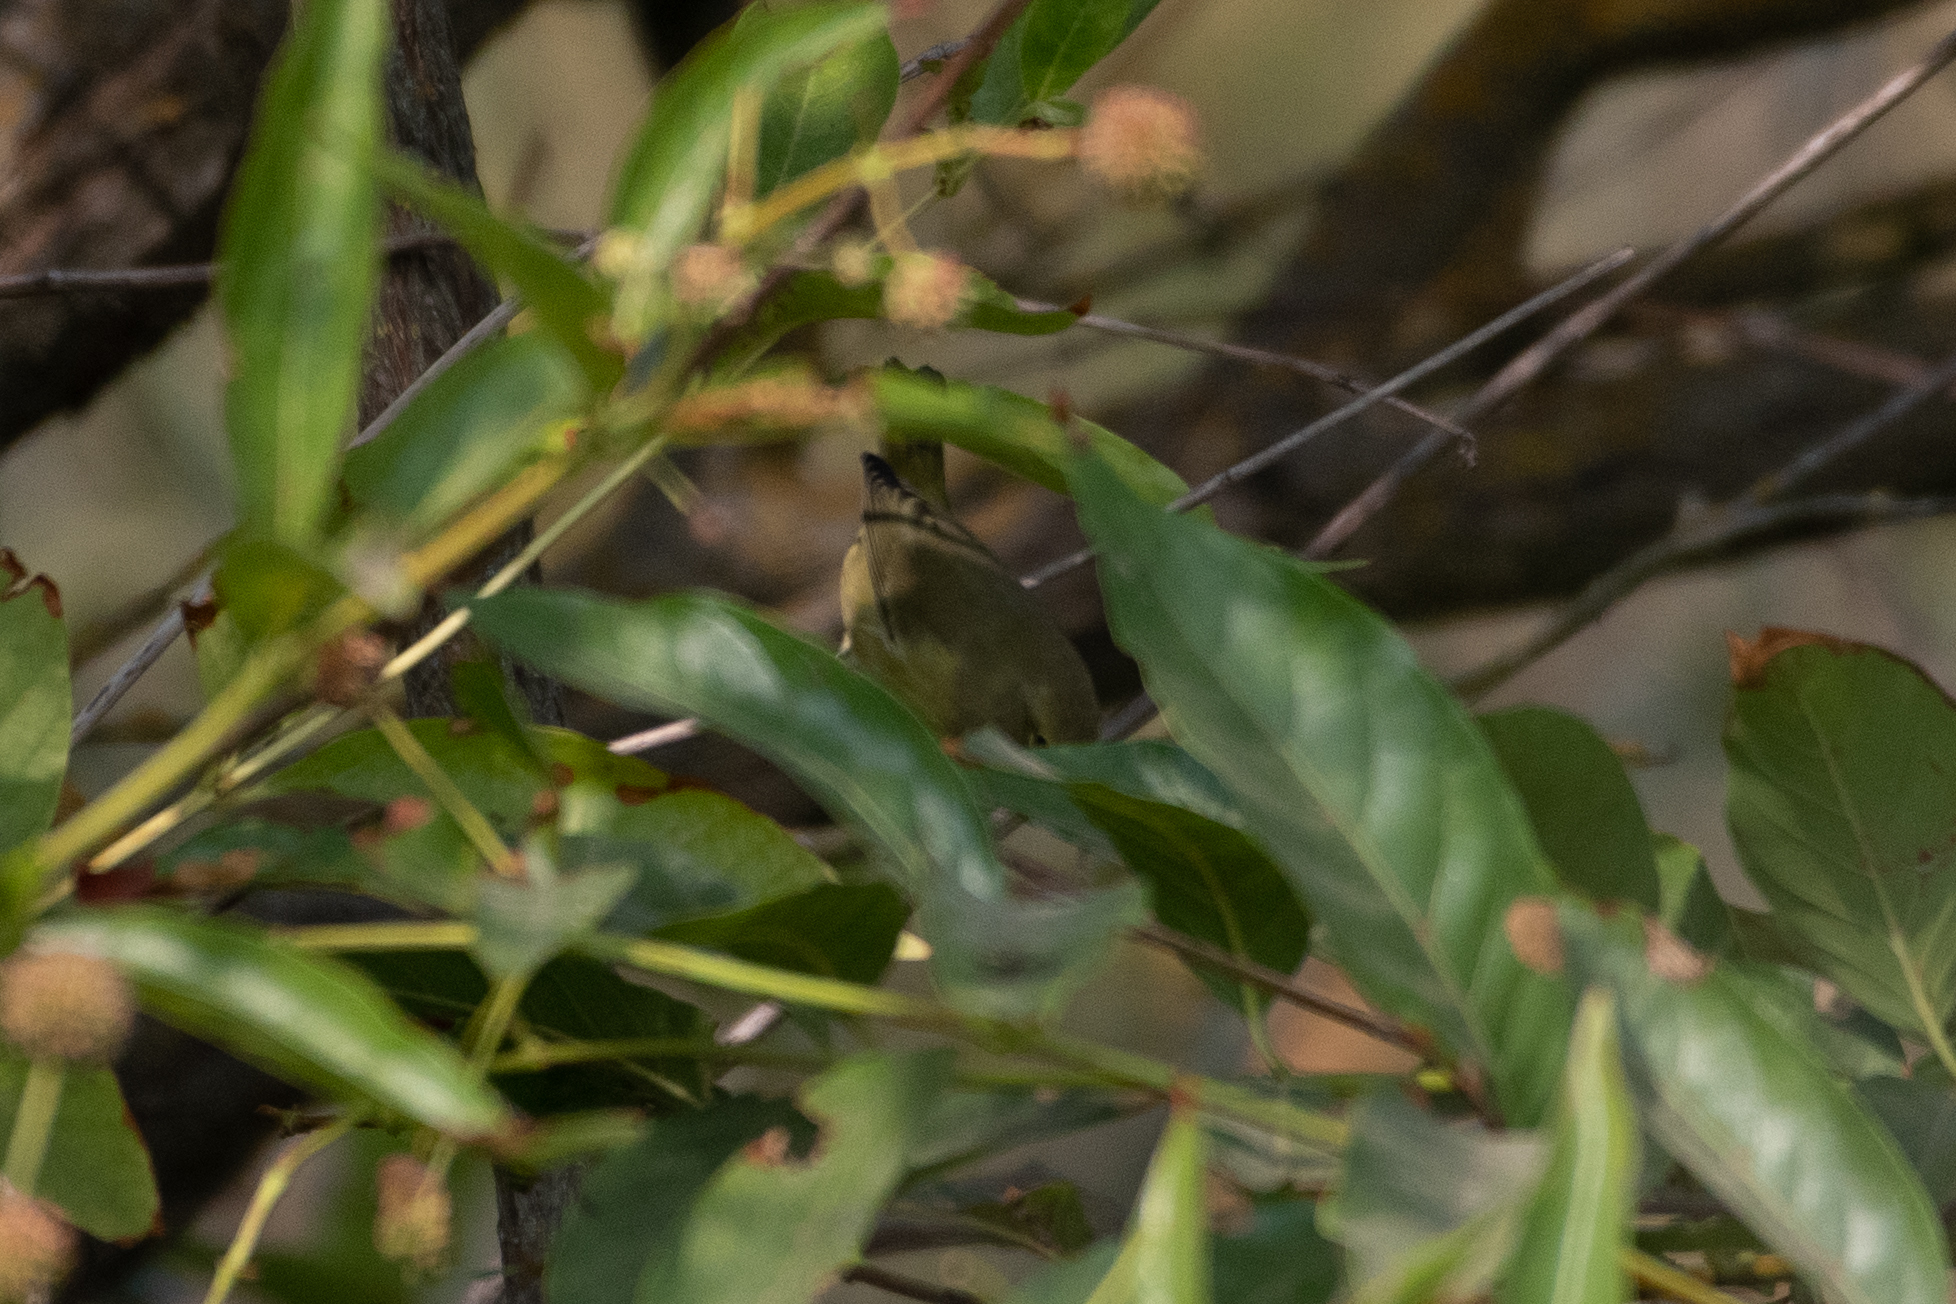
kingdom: Animalia
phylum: Chordata
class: Aves
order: Passeriformes
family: Parulidae
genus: Leiothlypis
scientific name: Leiothlypis celata
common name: Orange-crowned warbler
